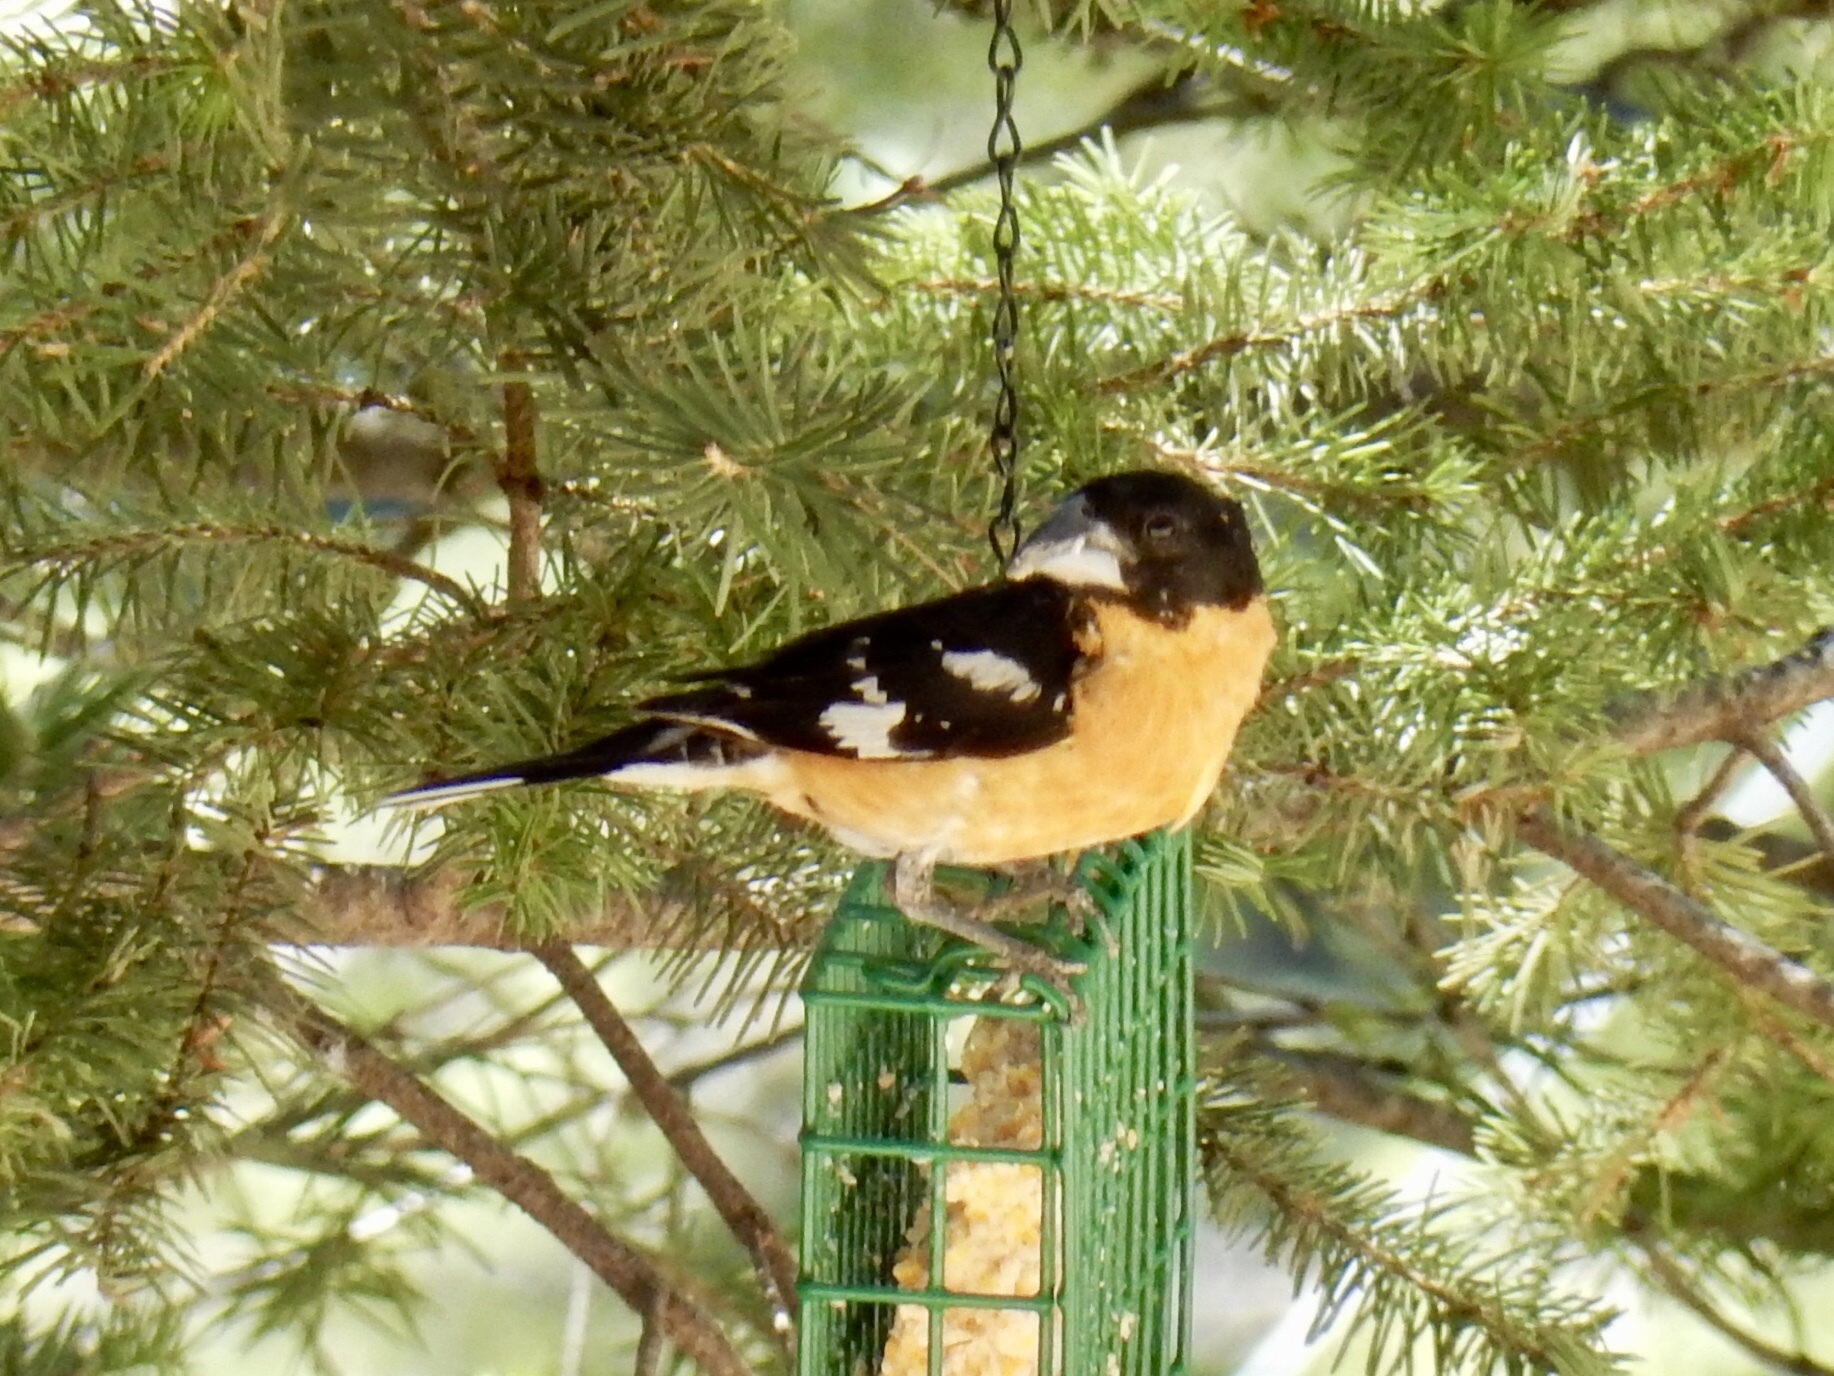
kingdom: Animalia
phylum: Chordata
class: Aves
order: Passeriformes
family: Cardinalidae
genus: Pheucticus
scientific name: Pheucticus melanocephalus
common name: Black-headed grosbeak
